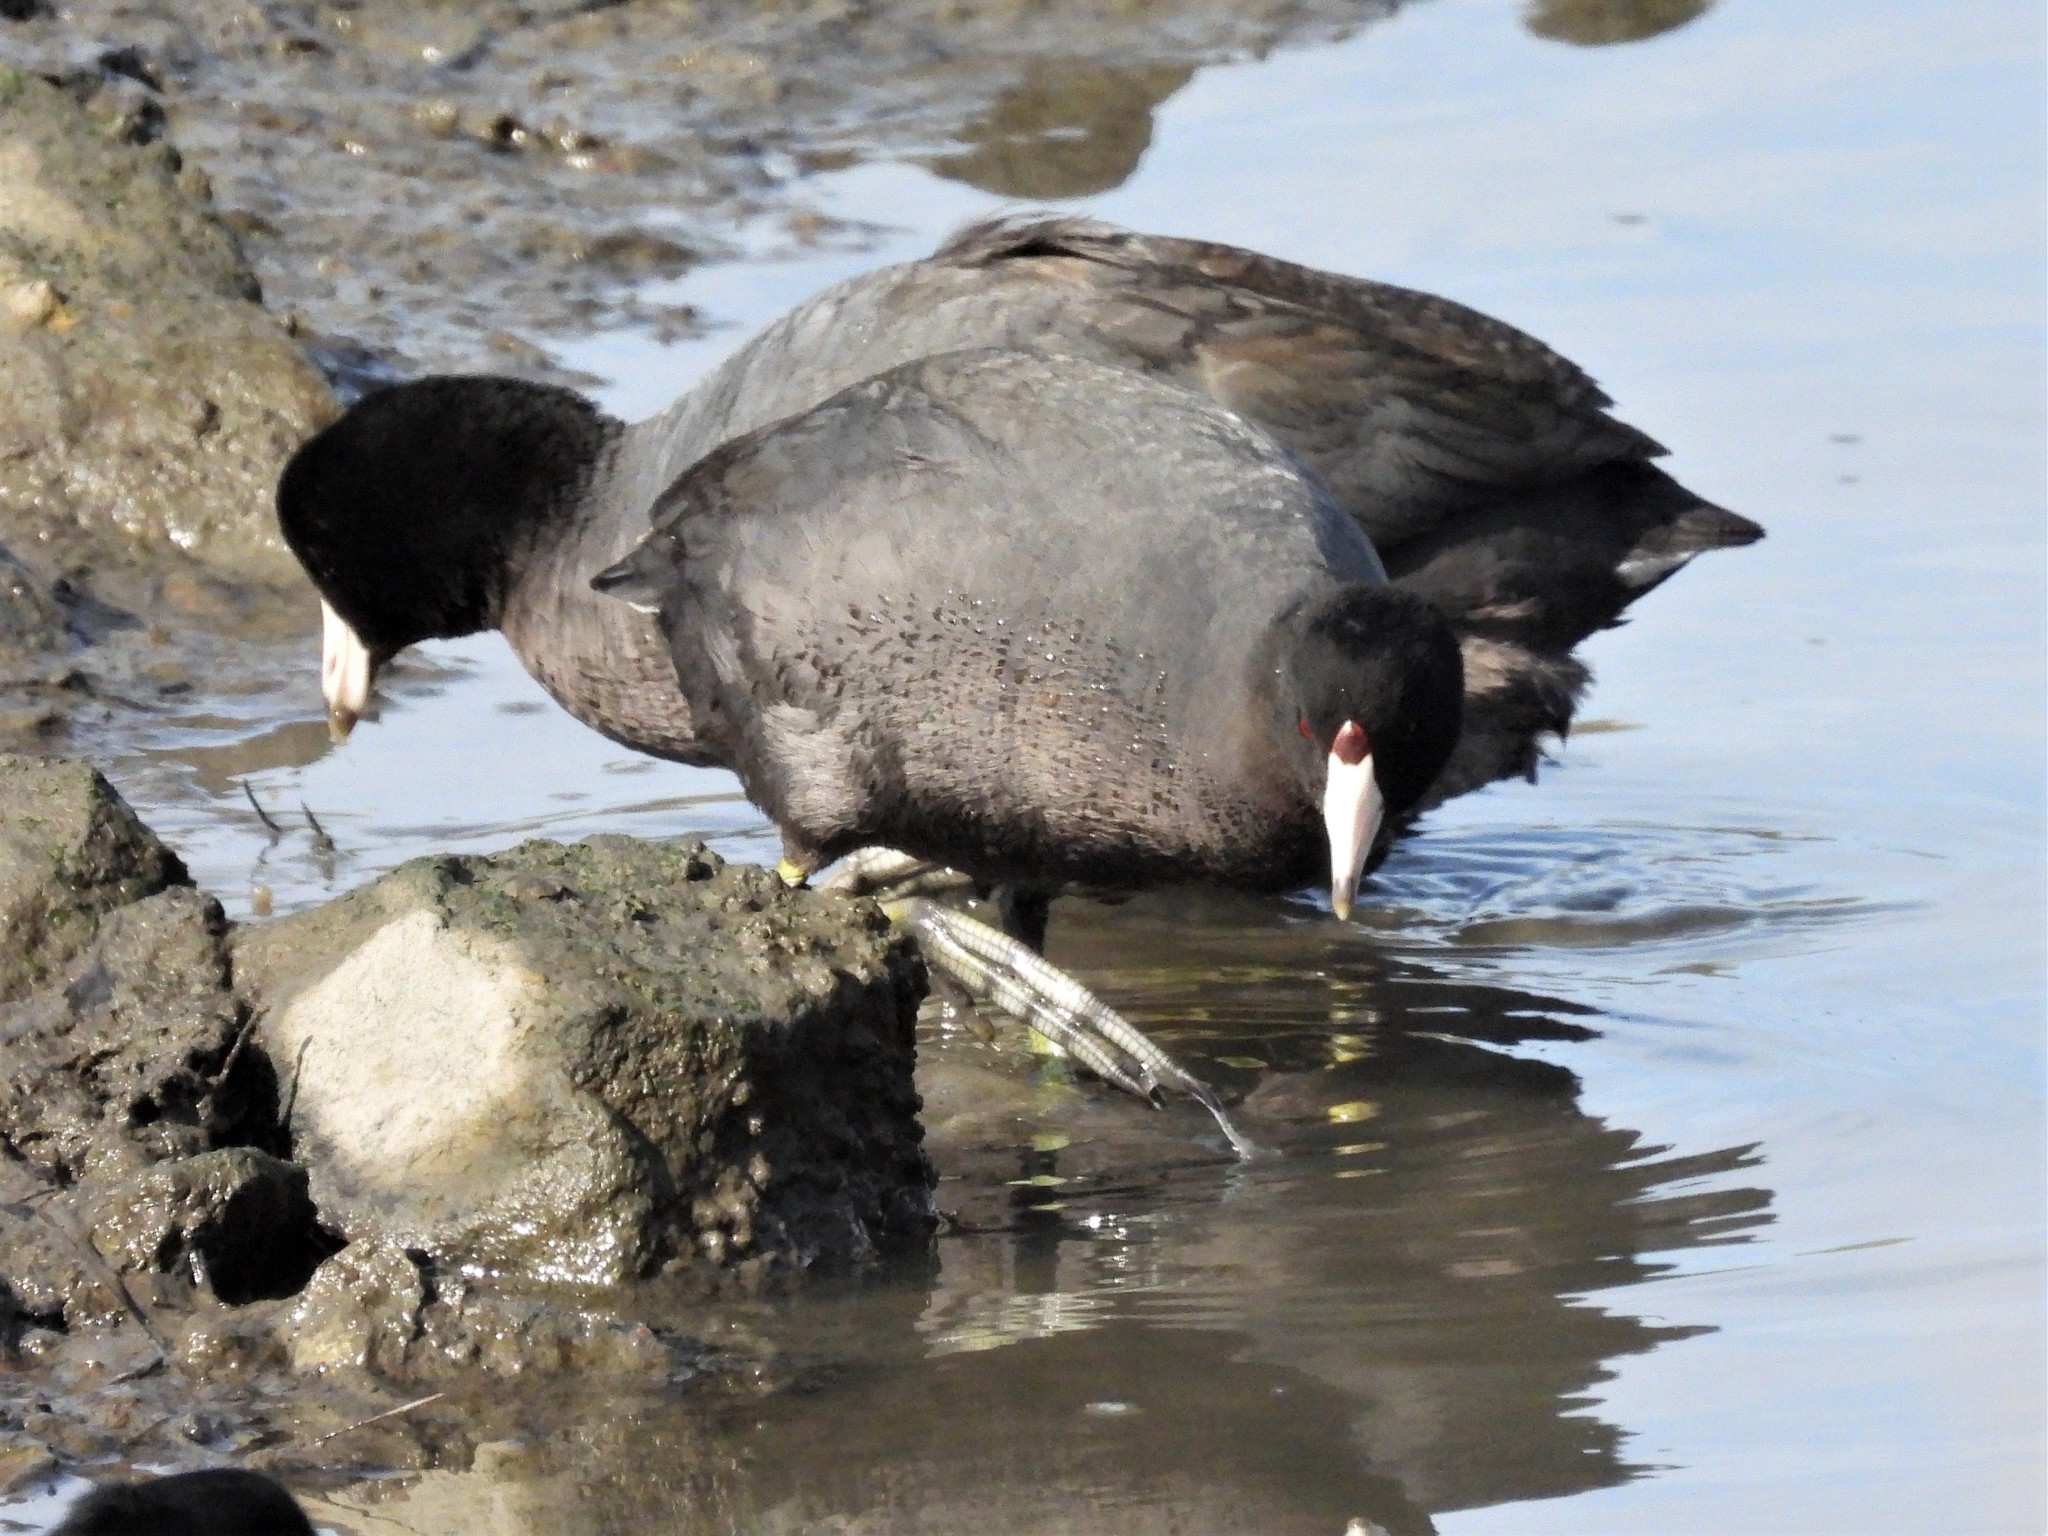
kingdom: Animalia
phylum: Chordata
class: Aves
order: Gruiformes
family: Rallidae
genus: Fulica
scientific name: Fulica americana
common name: American coot
